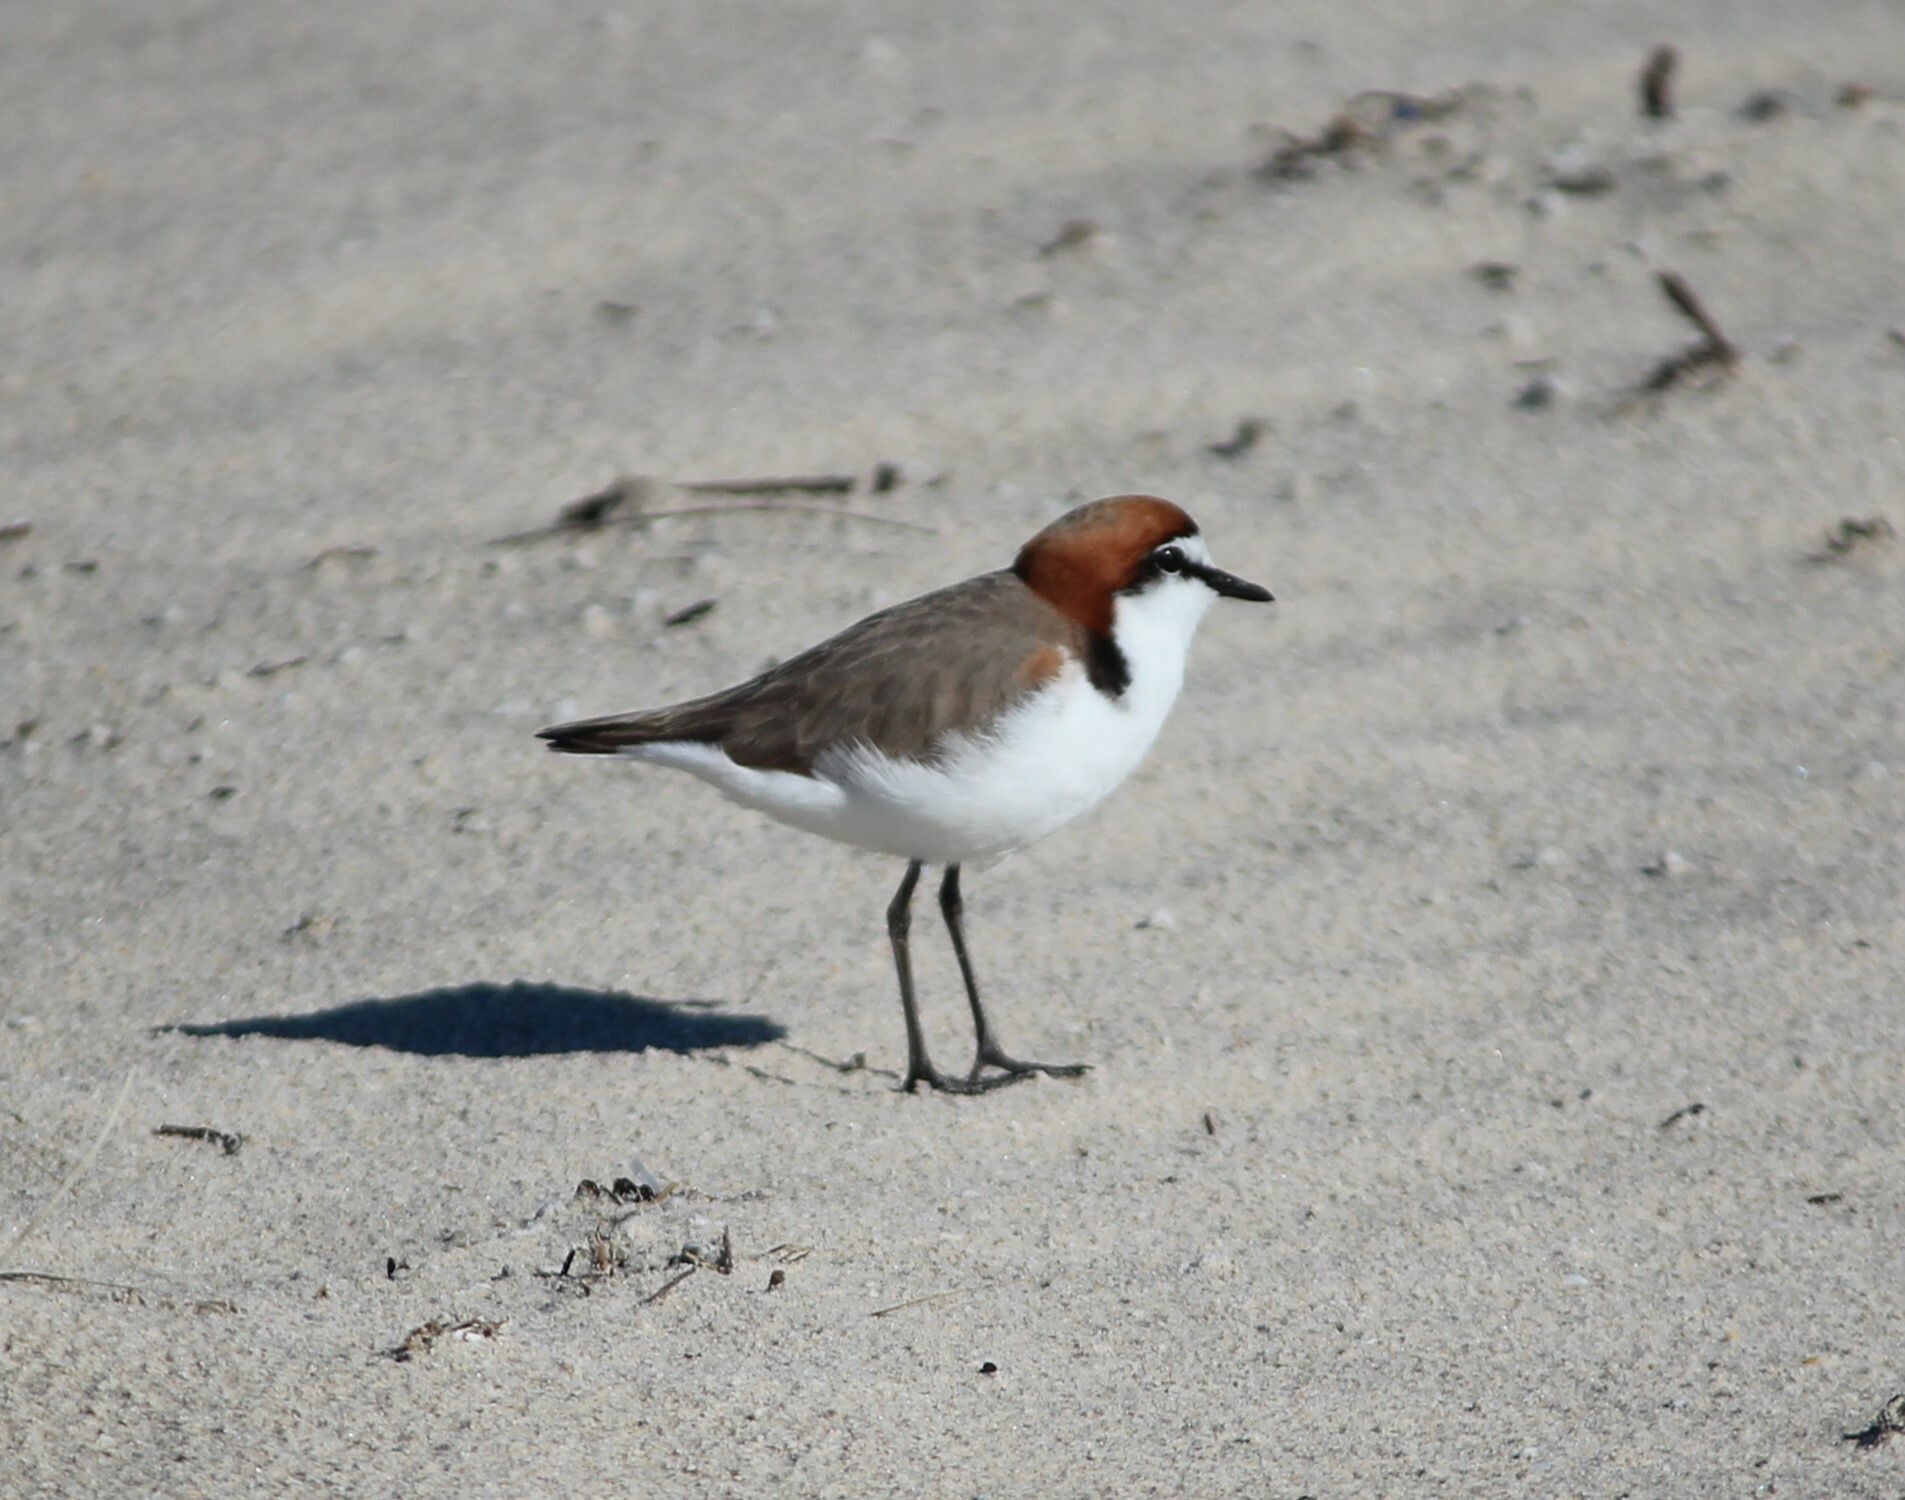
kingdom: Animalia
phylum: Chordata
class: Aves
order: Charadriiformes
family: Charadriidae
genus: Anarhynchus
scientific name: Anarhynchus
